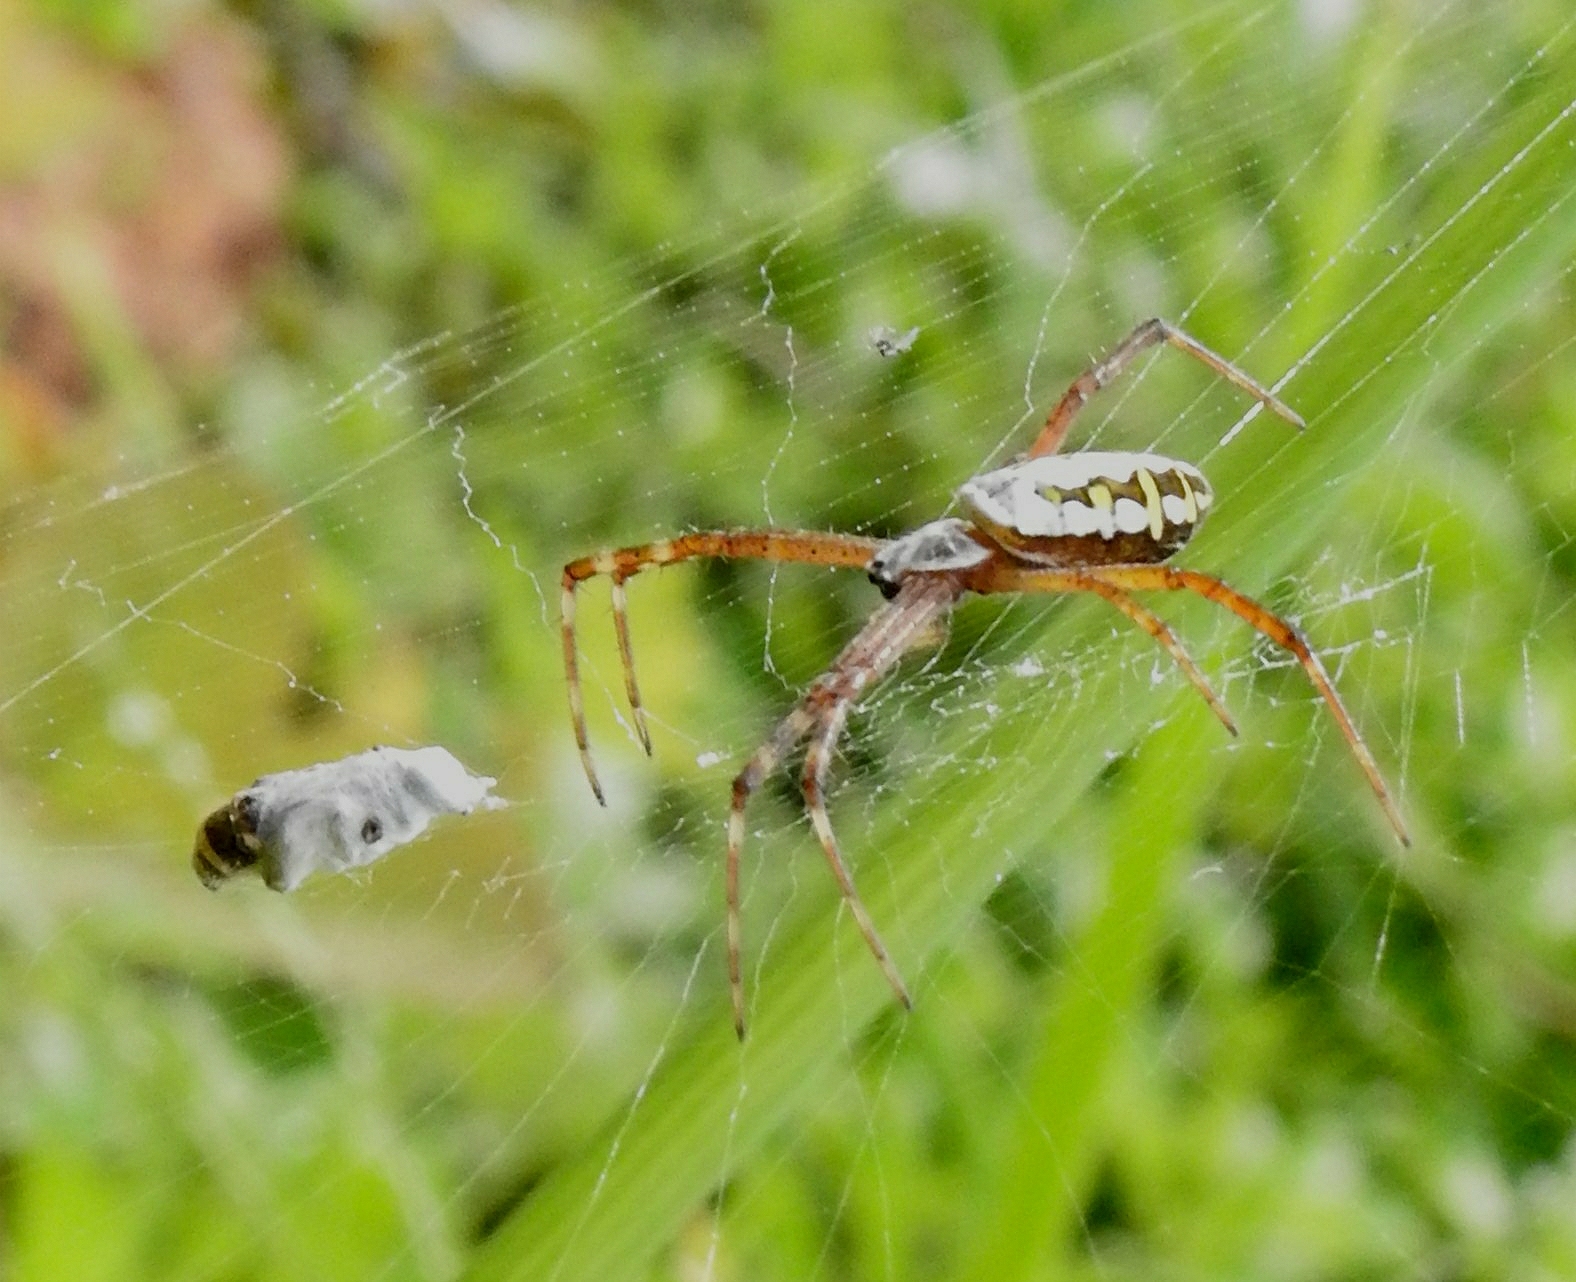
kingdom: Animalia
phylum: Arthropoda
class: Arachnida
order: Araneae
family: Araneidae
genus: Argiope
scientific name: Argiope catenulata
